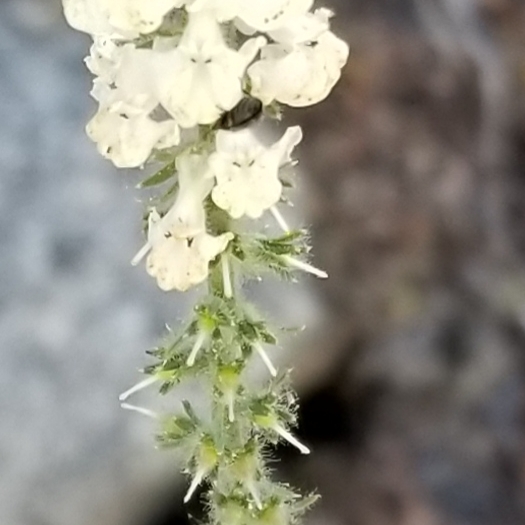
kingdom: Plantae
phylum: Tracheophyta
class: Magnoliopsida
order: Lamiales
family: Plantaginaceae
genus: Sairocarpus
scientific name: Sairocarpus coulterianus
